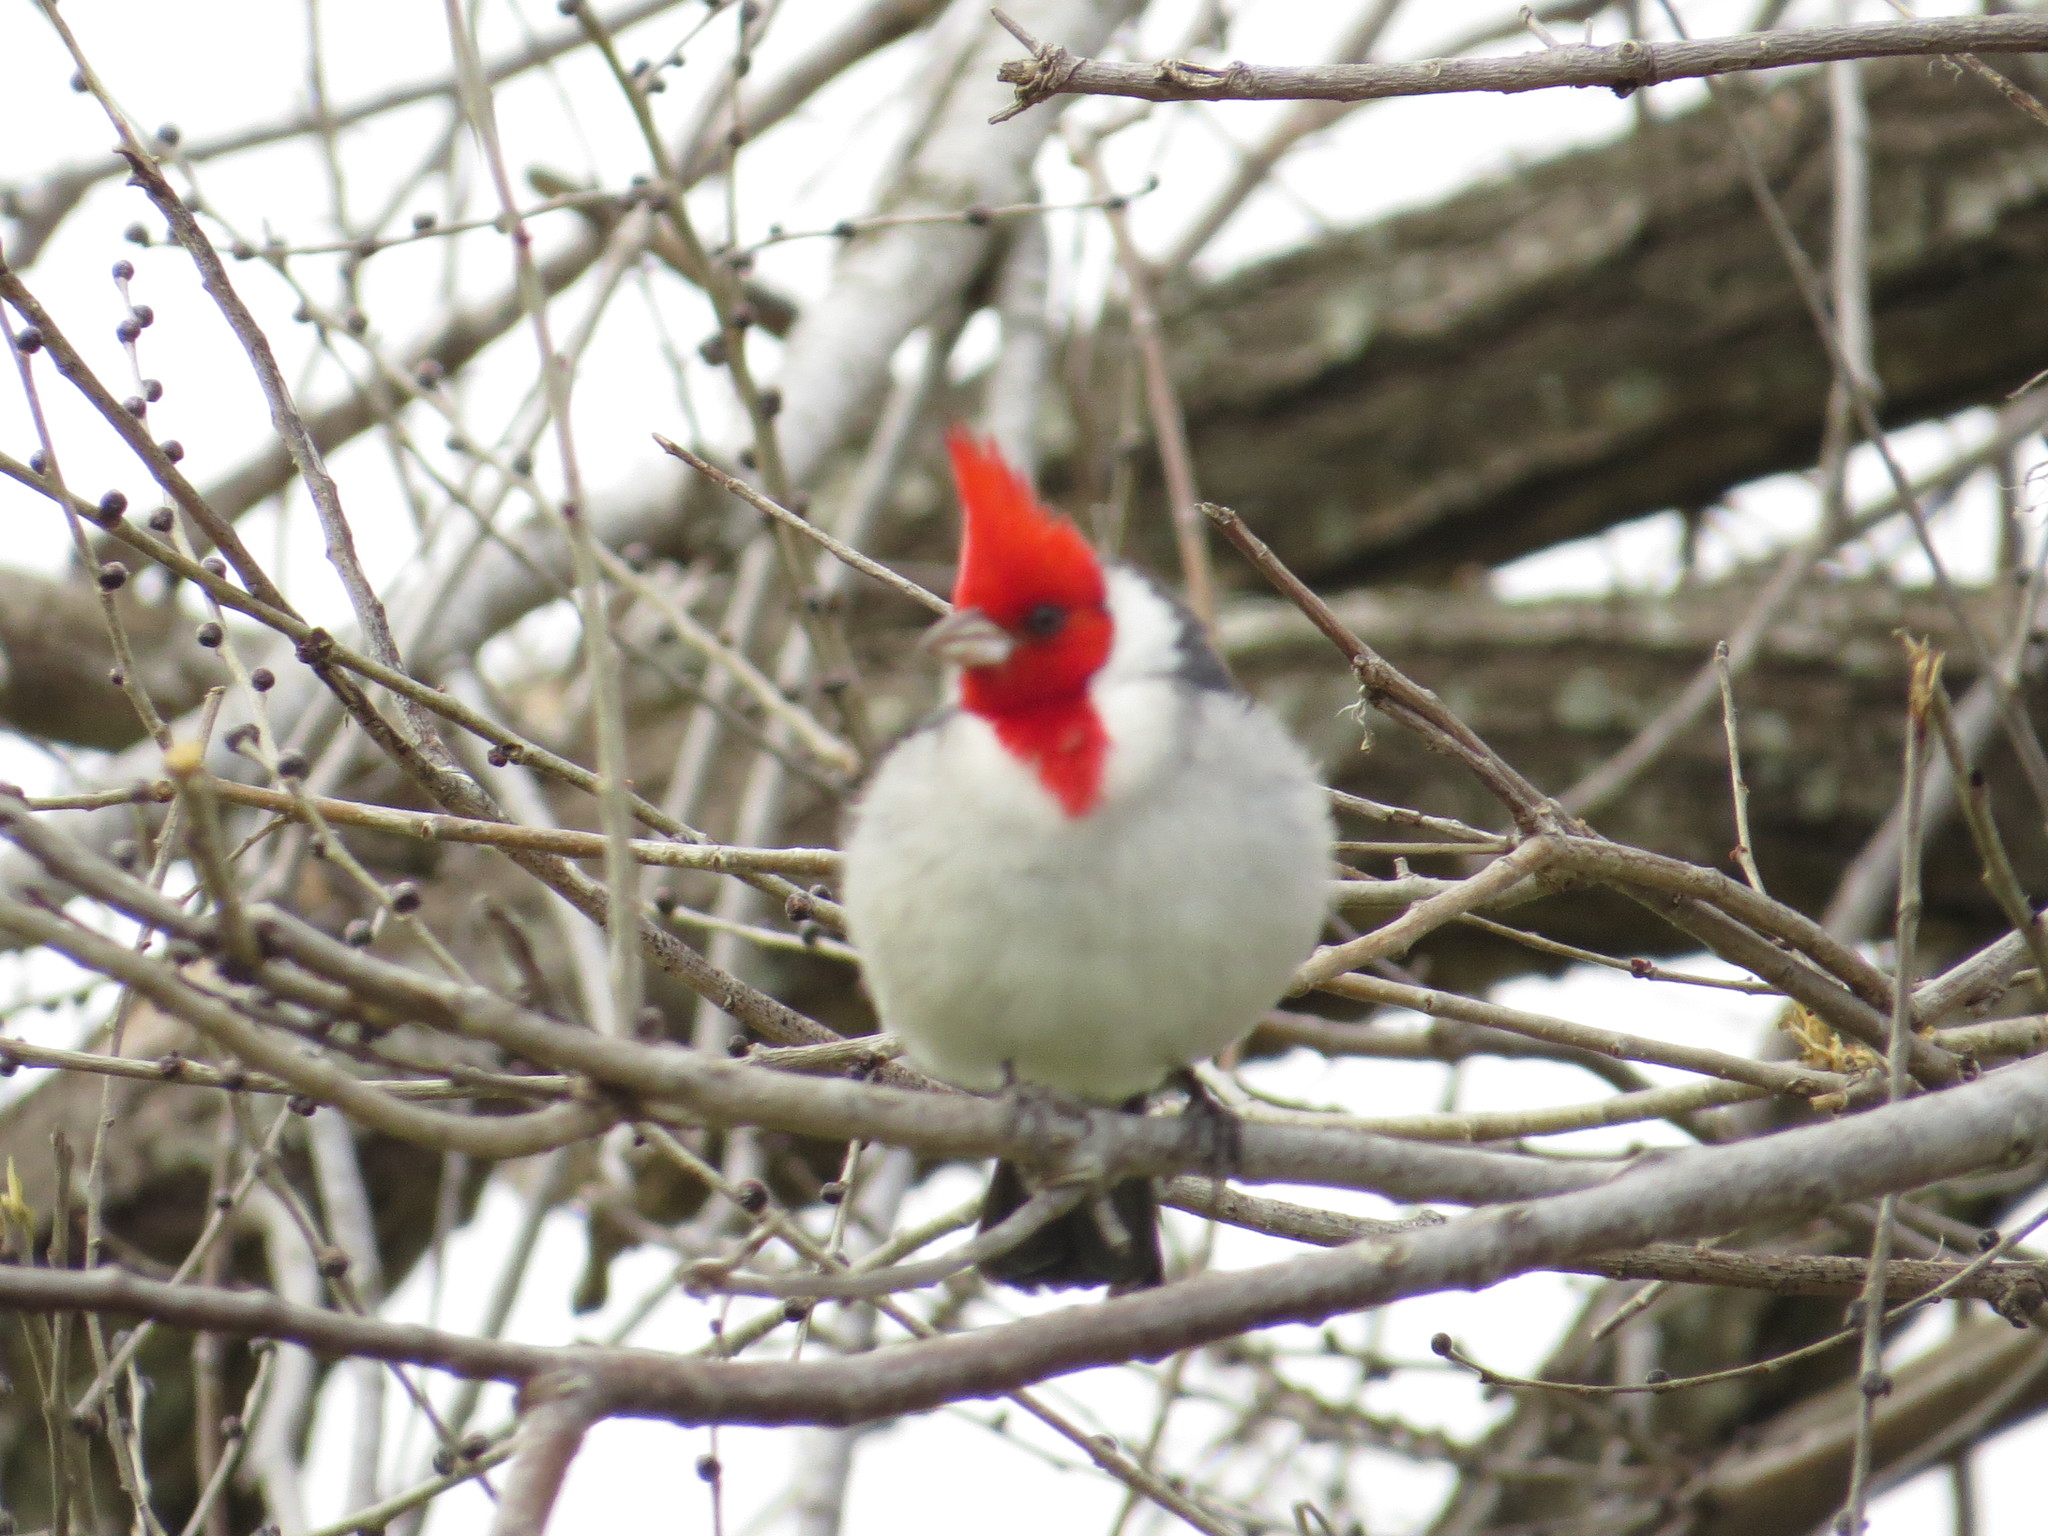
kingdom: Animalia
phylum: Chordata
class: Aves
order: Passeriformes
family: Thraupidae
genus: Paroaria
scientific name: Paroaria coronata
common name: Red-crested cardinal
